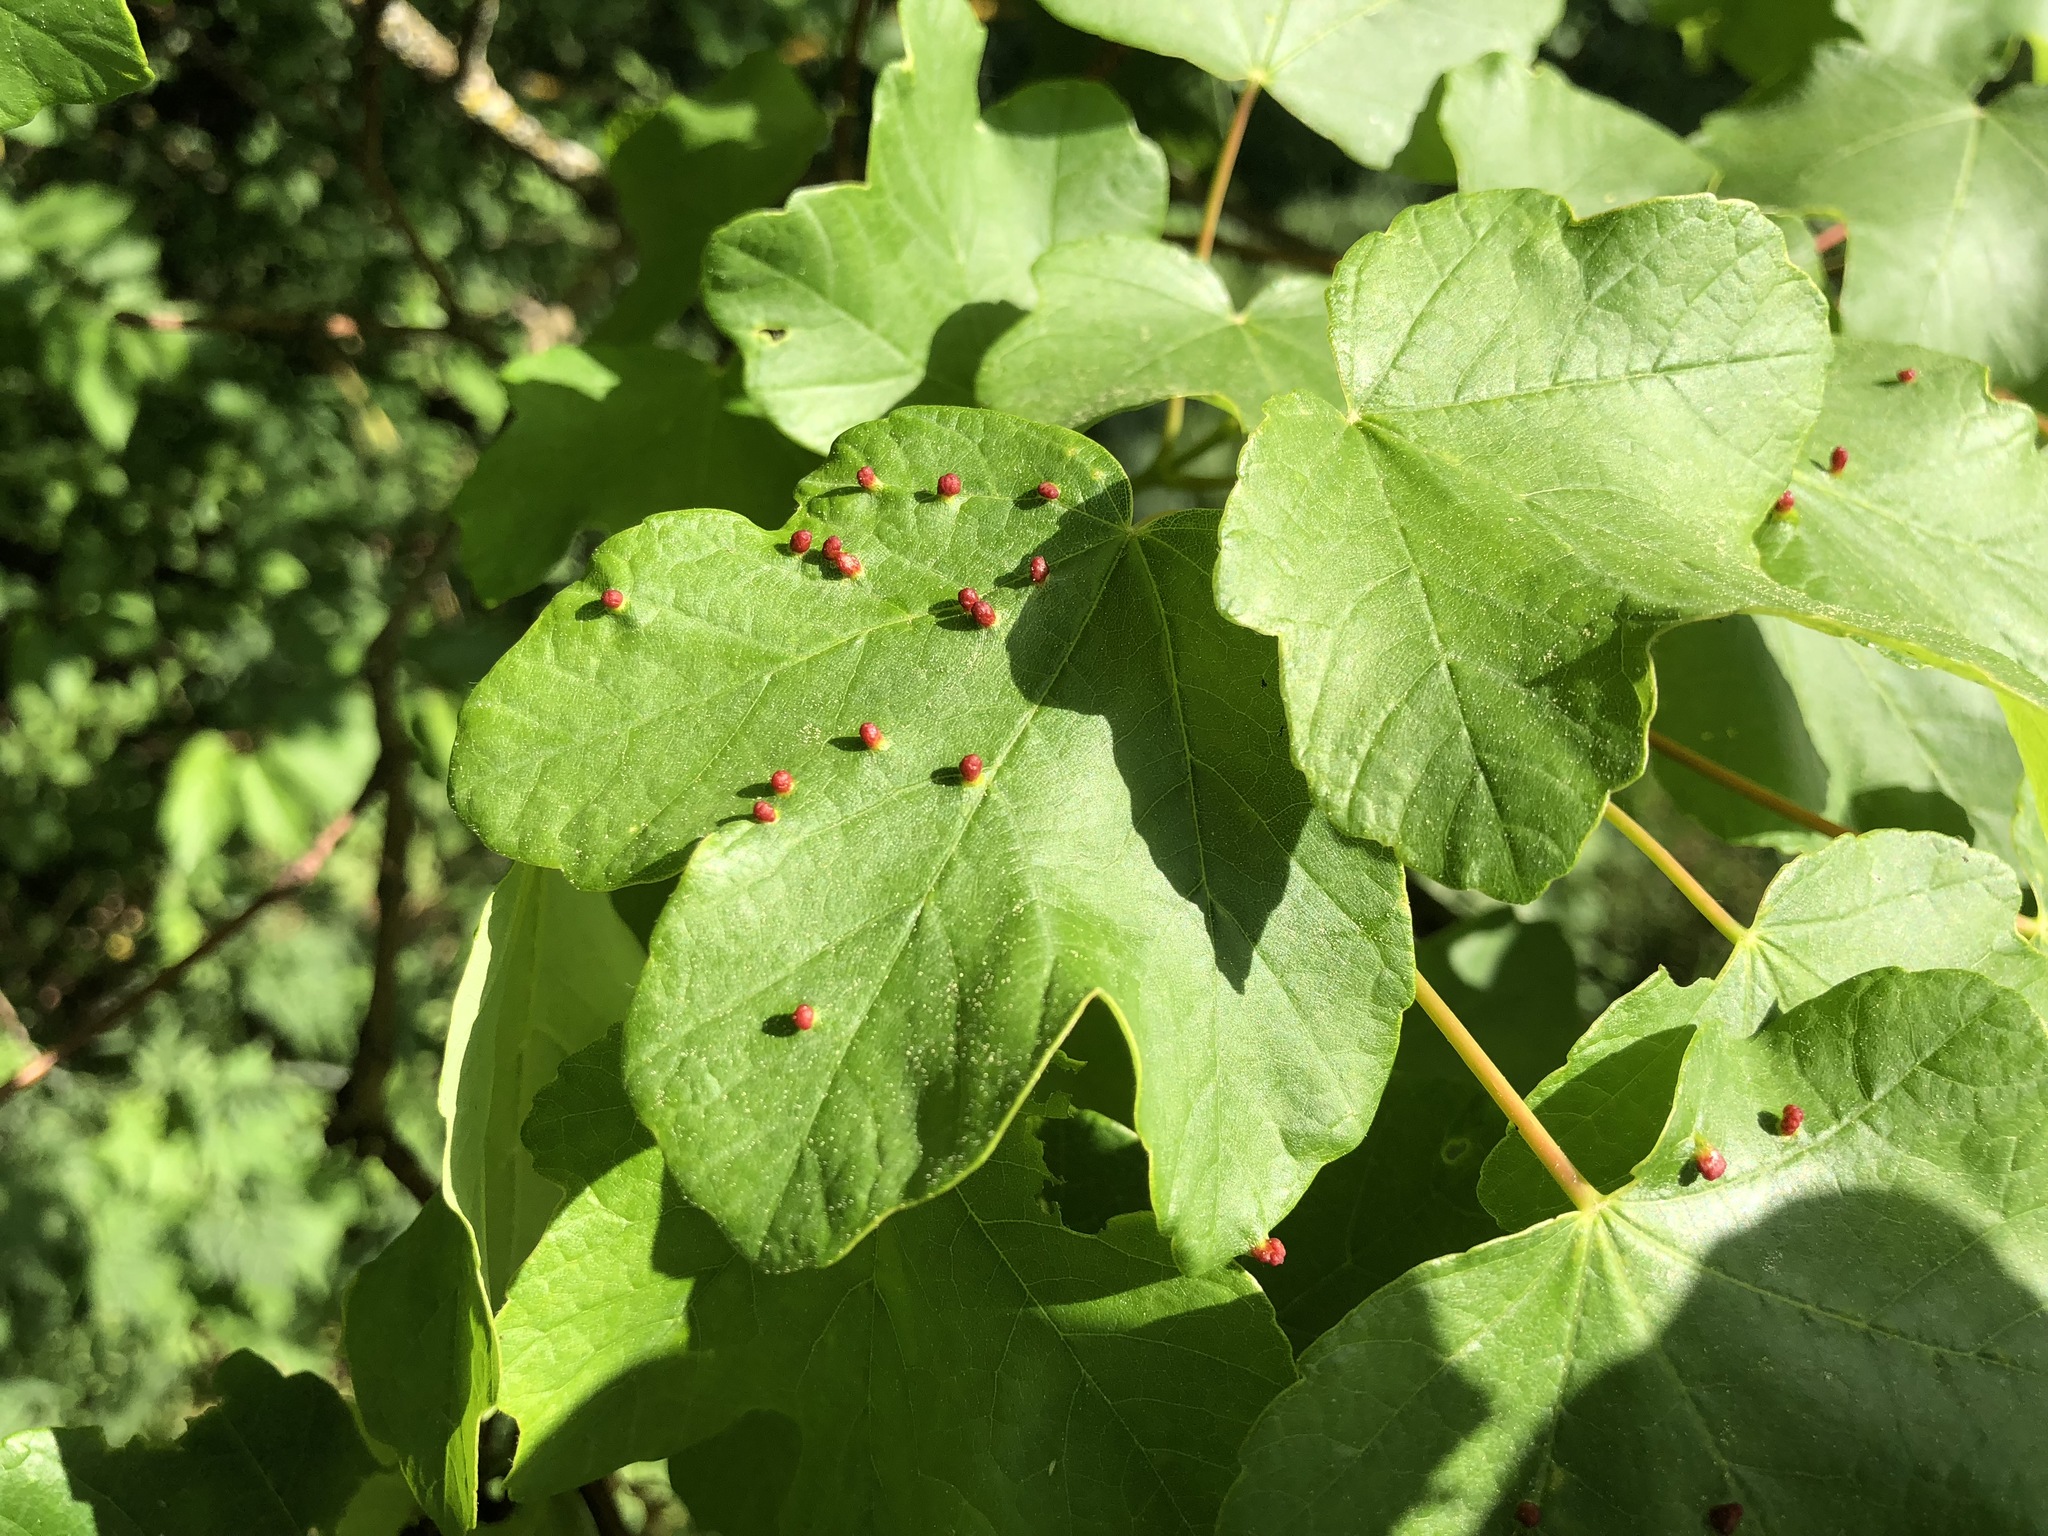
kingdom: Animalia
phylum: Arthropoda
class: Arachnida
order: Trombidiformes
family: Eriophyidae
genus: Aceria
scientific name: Aceria opulifolii
